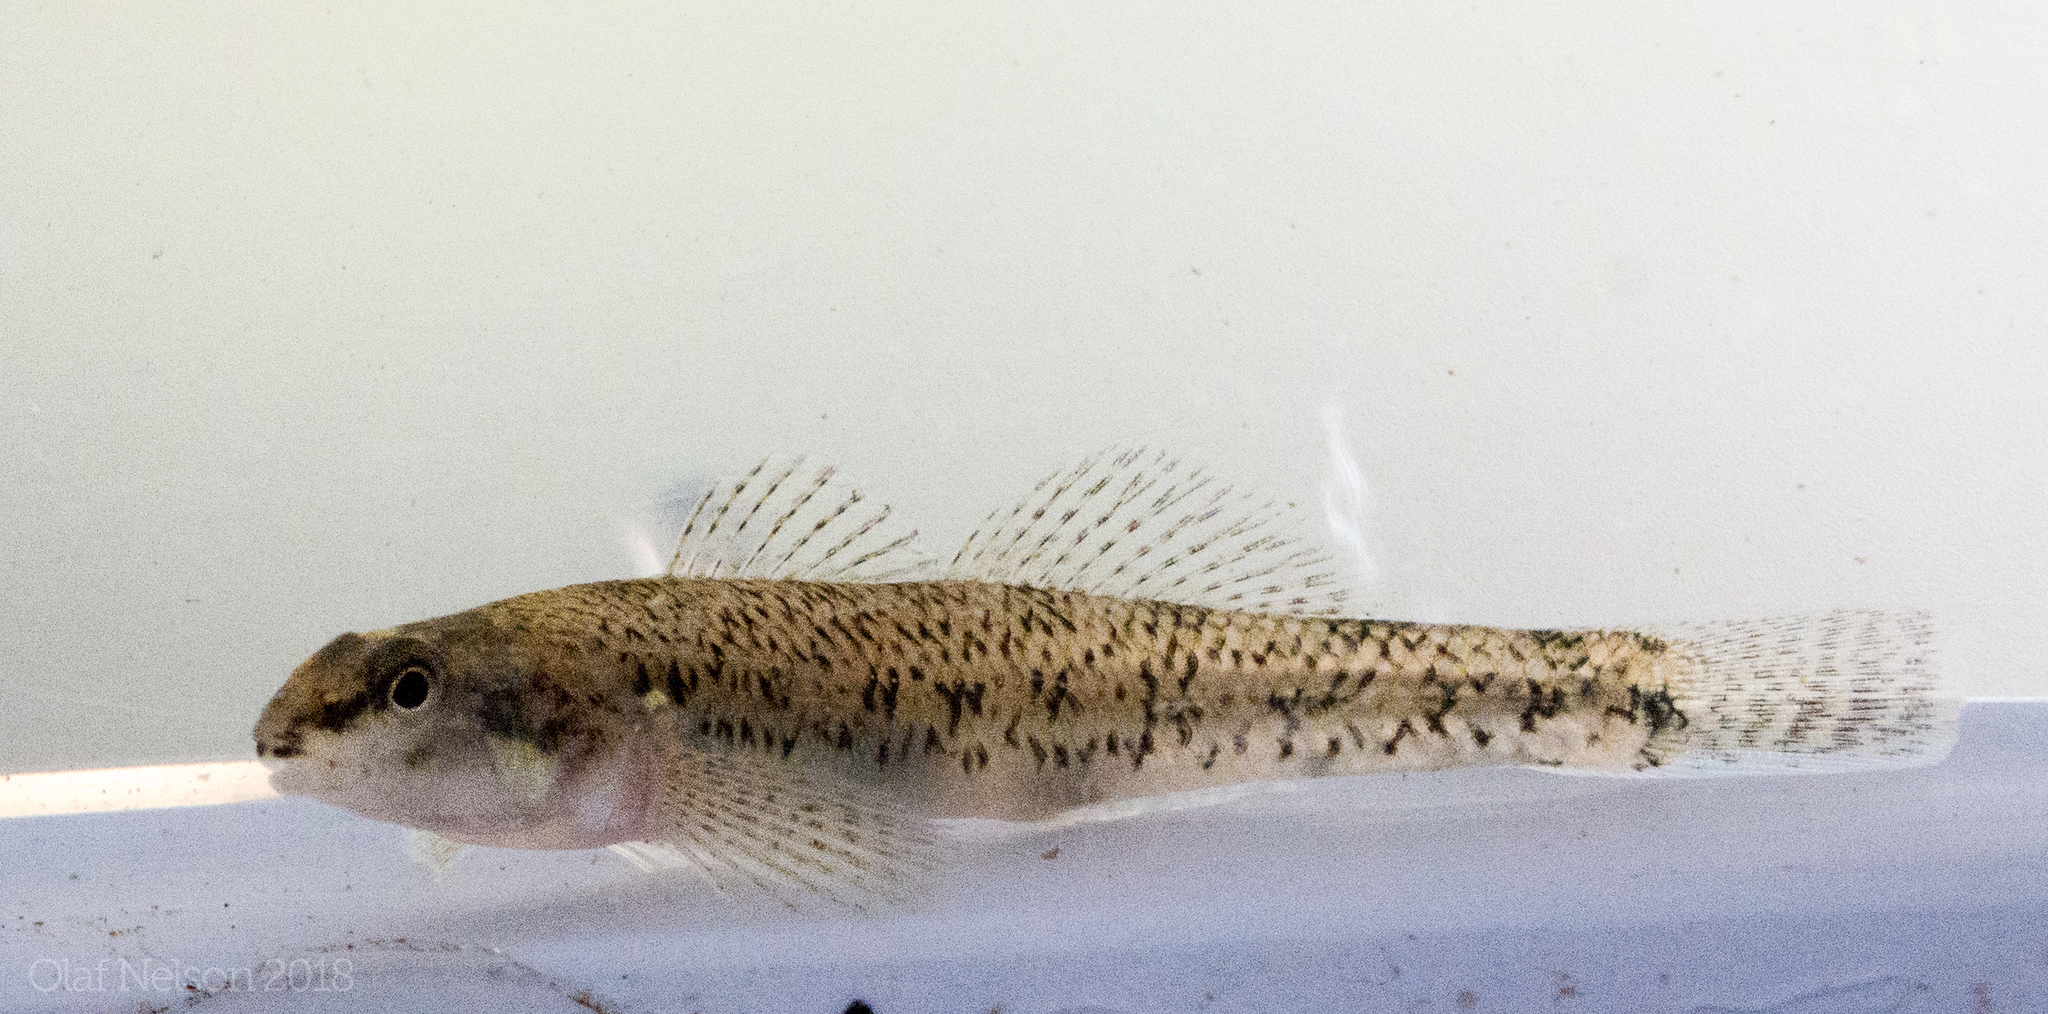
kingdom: Animalia
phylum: Chordata
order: Perciformes
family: Percidae
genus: Etheostoma
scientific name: Etheostoma nigrum
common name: Johnny darter
